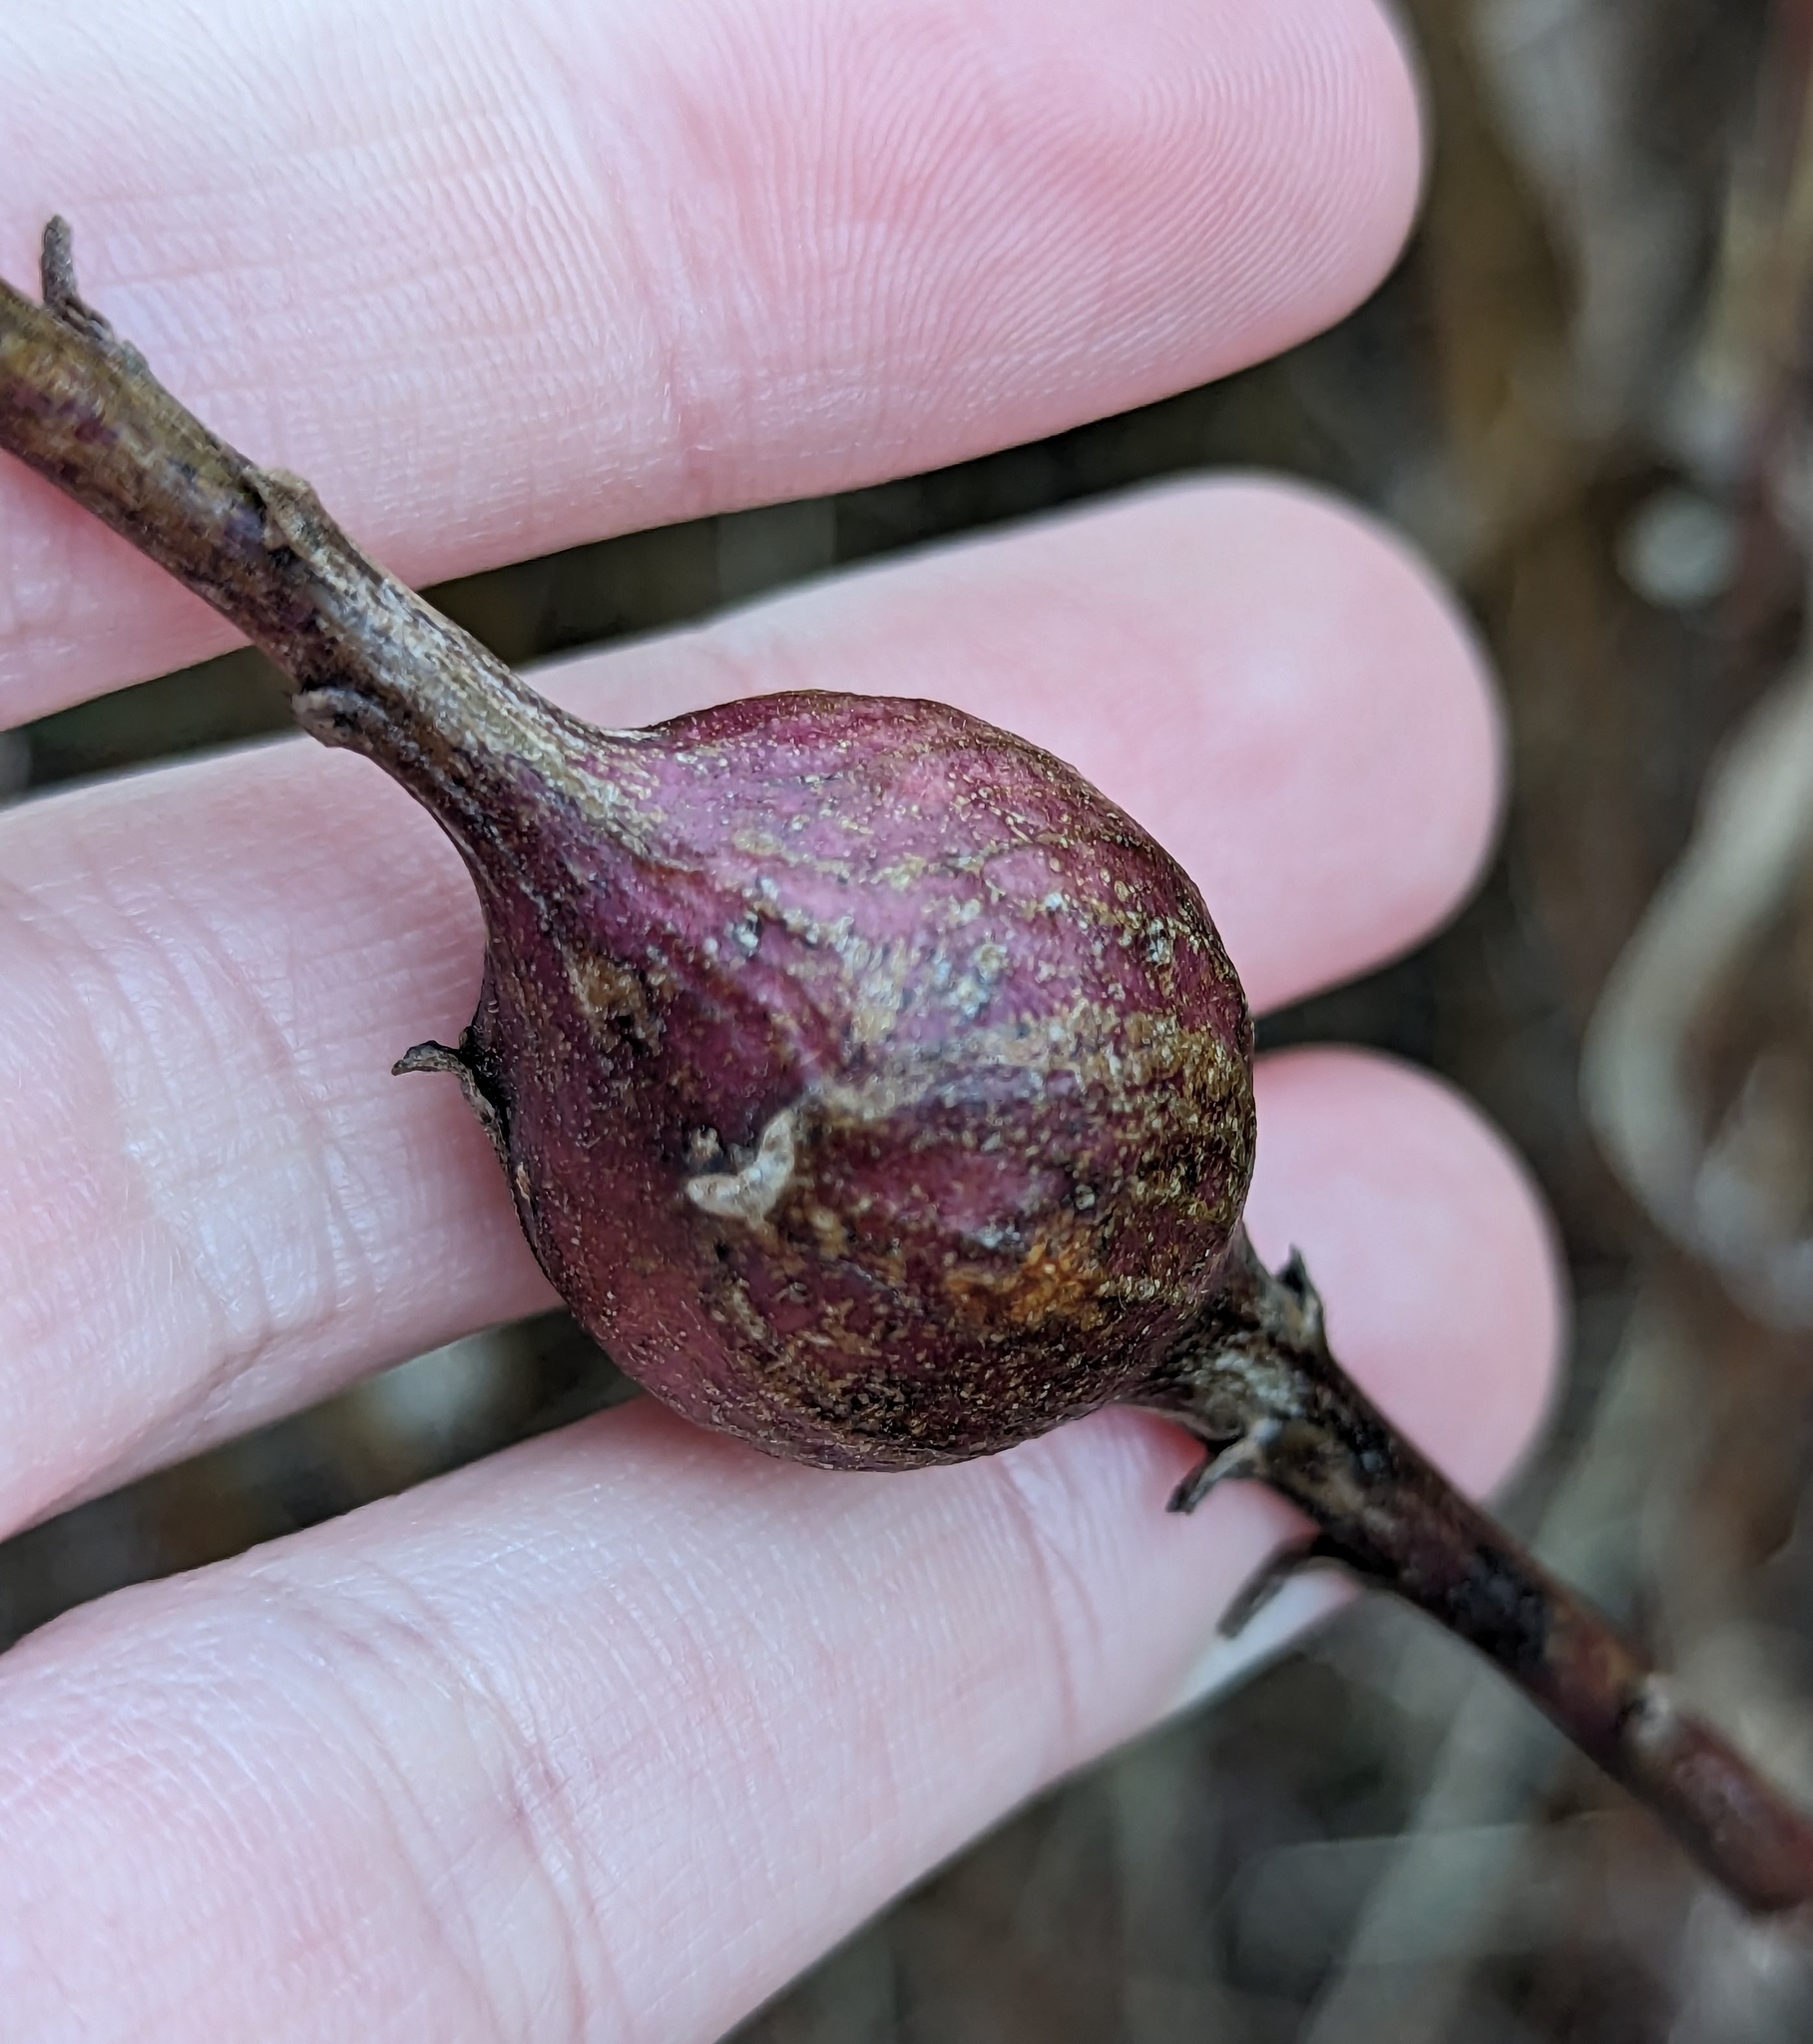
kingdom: Animalia
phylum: Arthropoda
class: Insecta
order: Diptera
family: Tephritidae
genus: Eurosta
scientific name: Eurosta solidaginis
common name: Goldenrod gall fly
